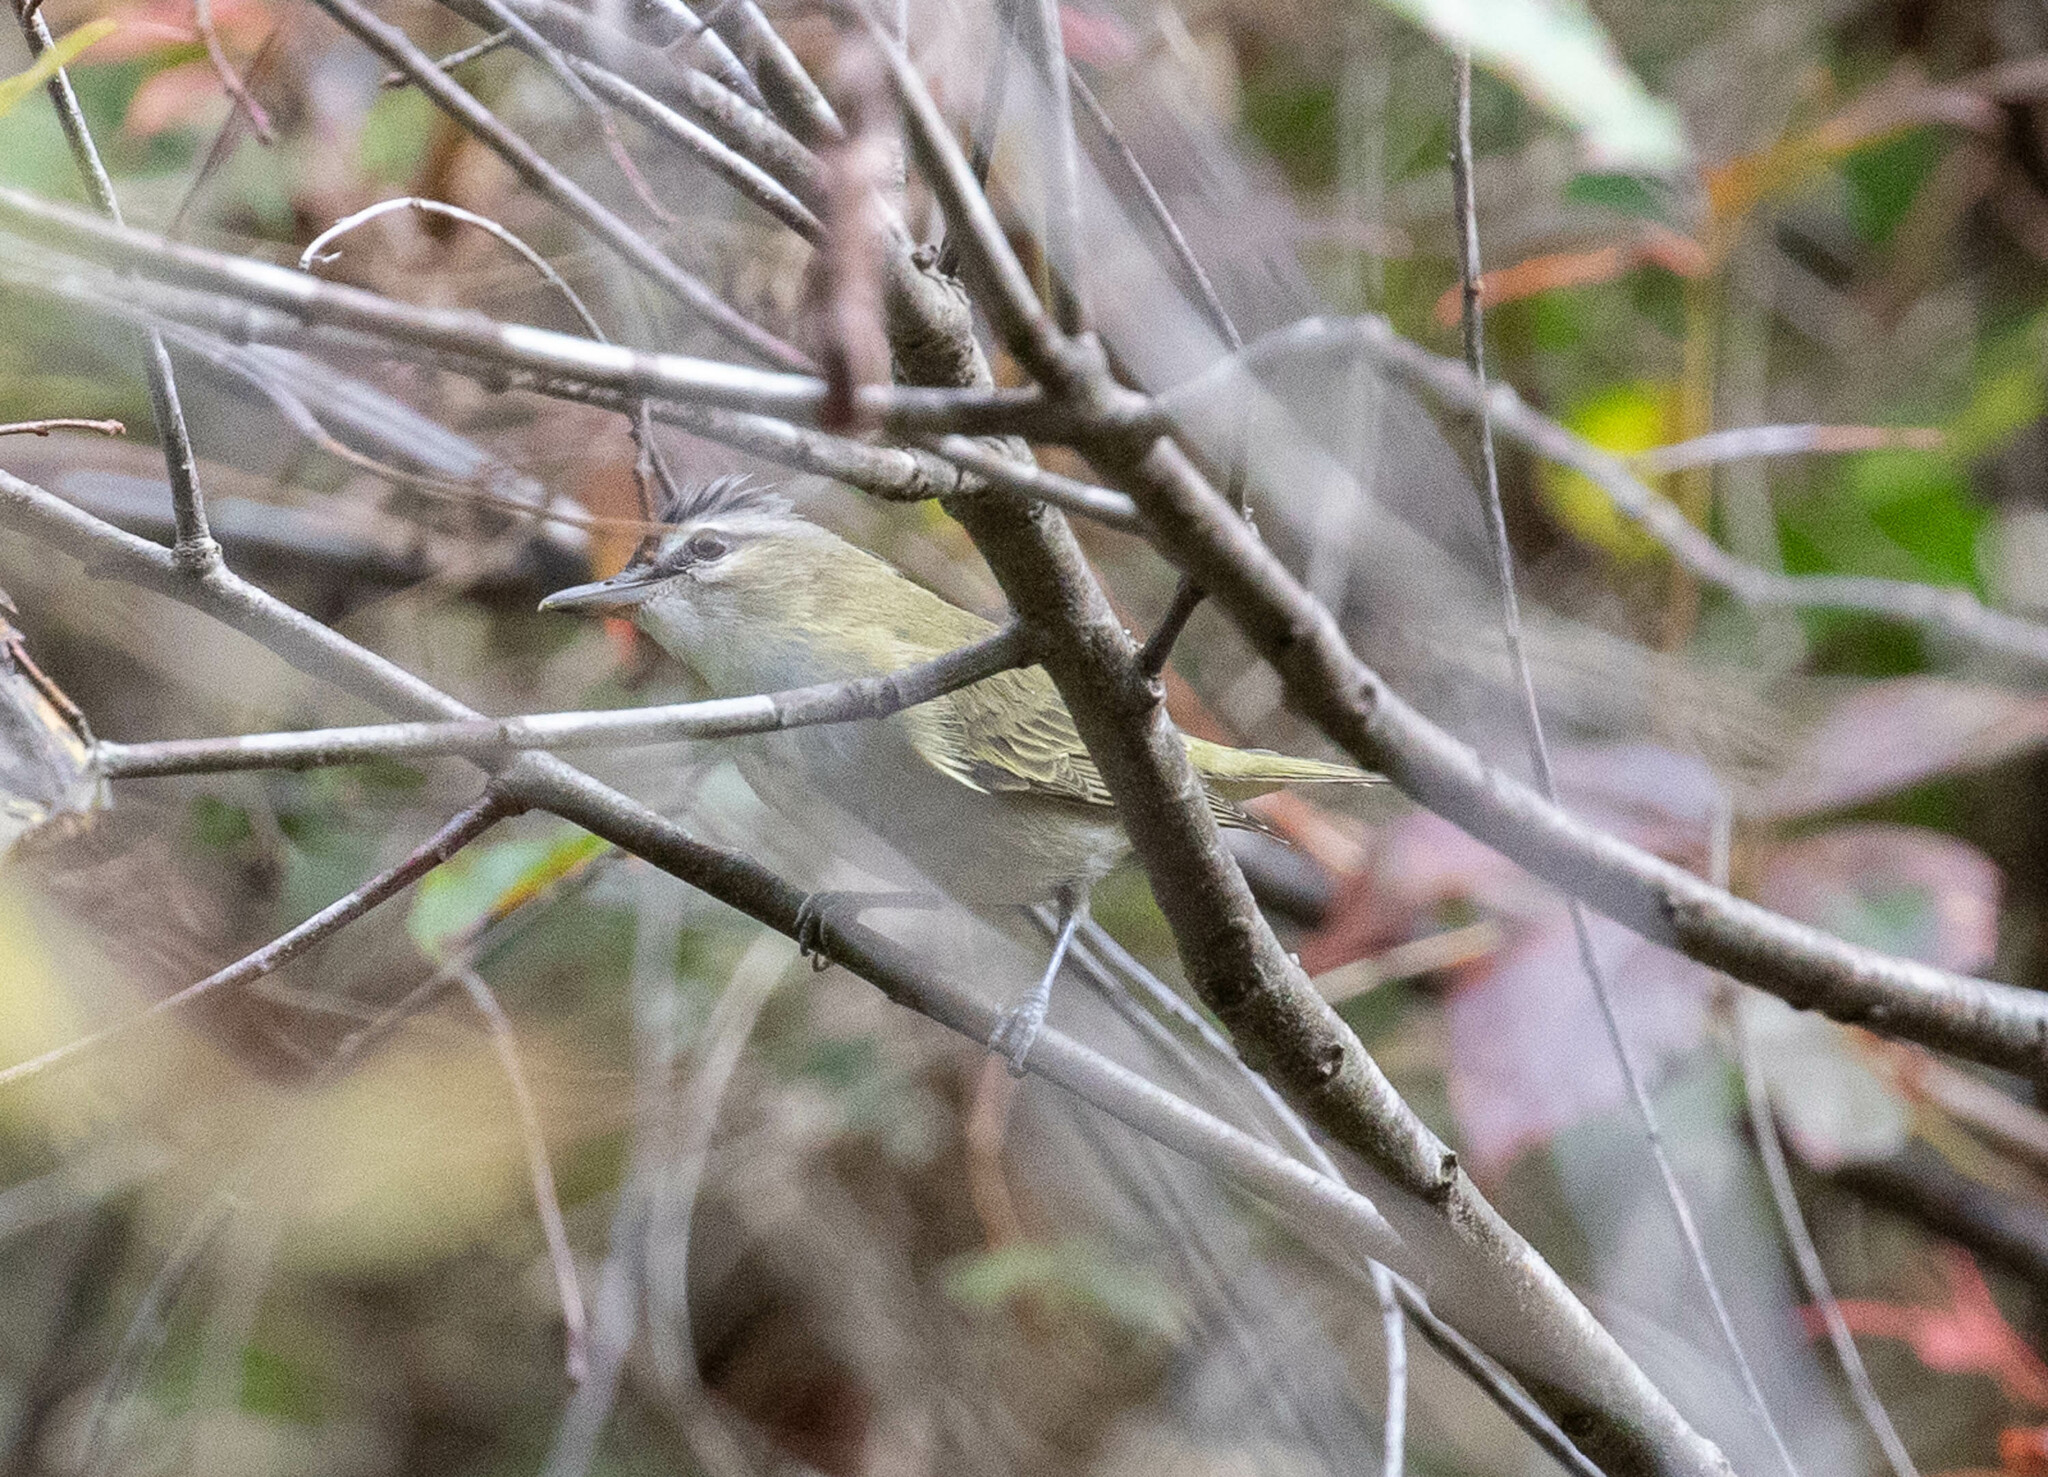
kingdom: Animalia
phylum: Chordata
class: Aves
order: Passeriformes
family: Vireonidae
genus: Vireo
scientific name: Vireo olivaceus
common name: Red-eyed vireo
